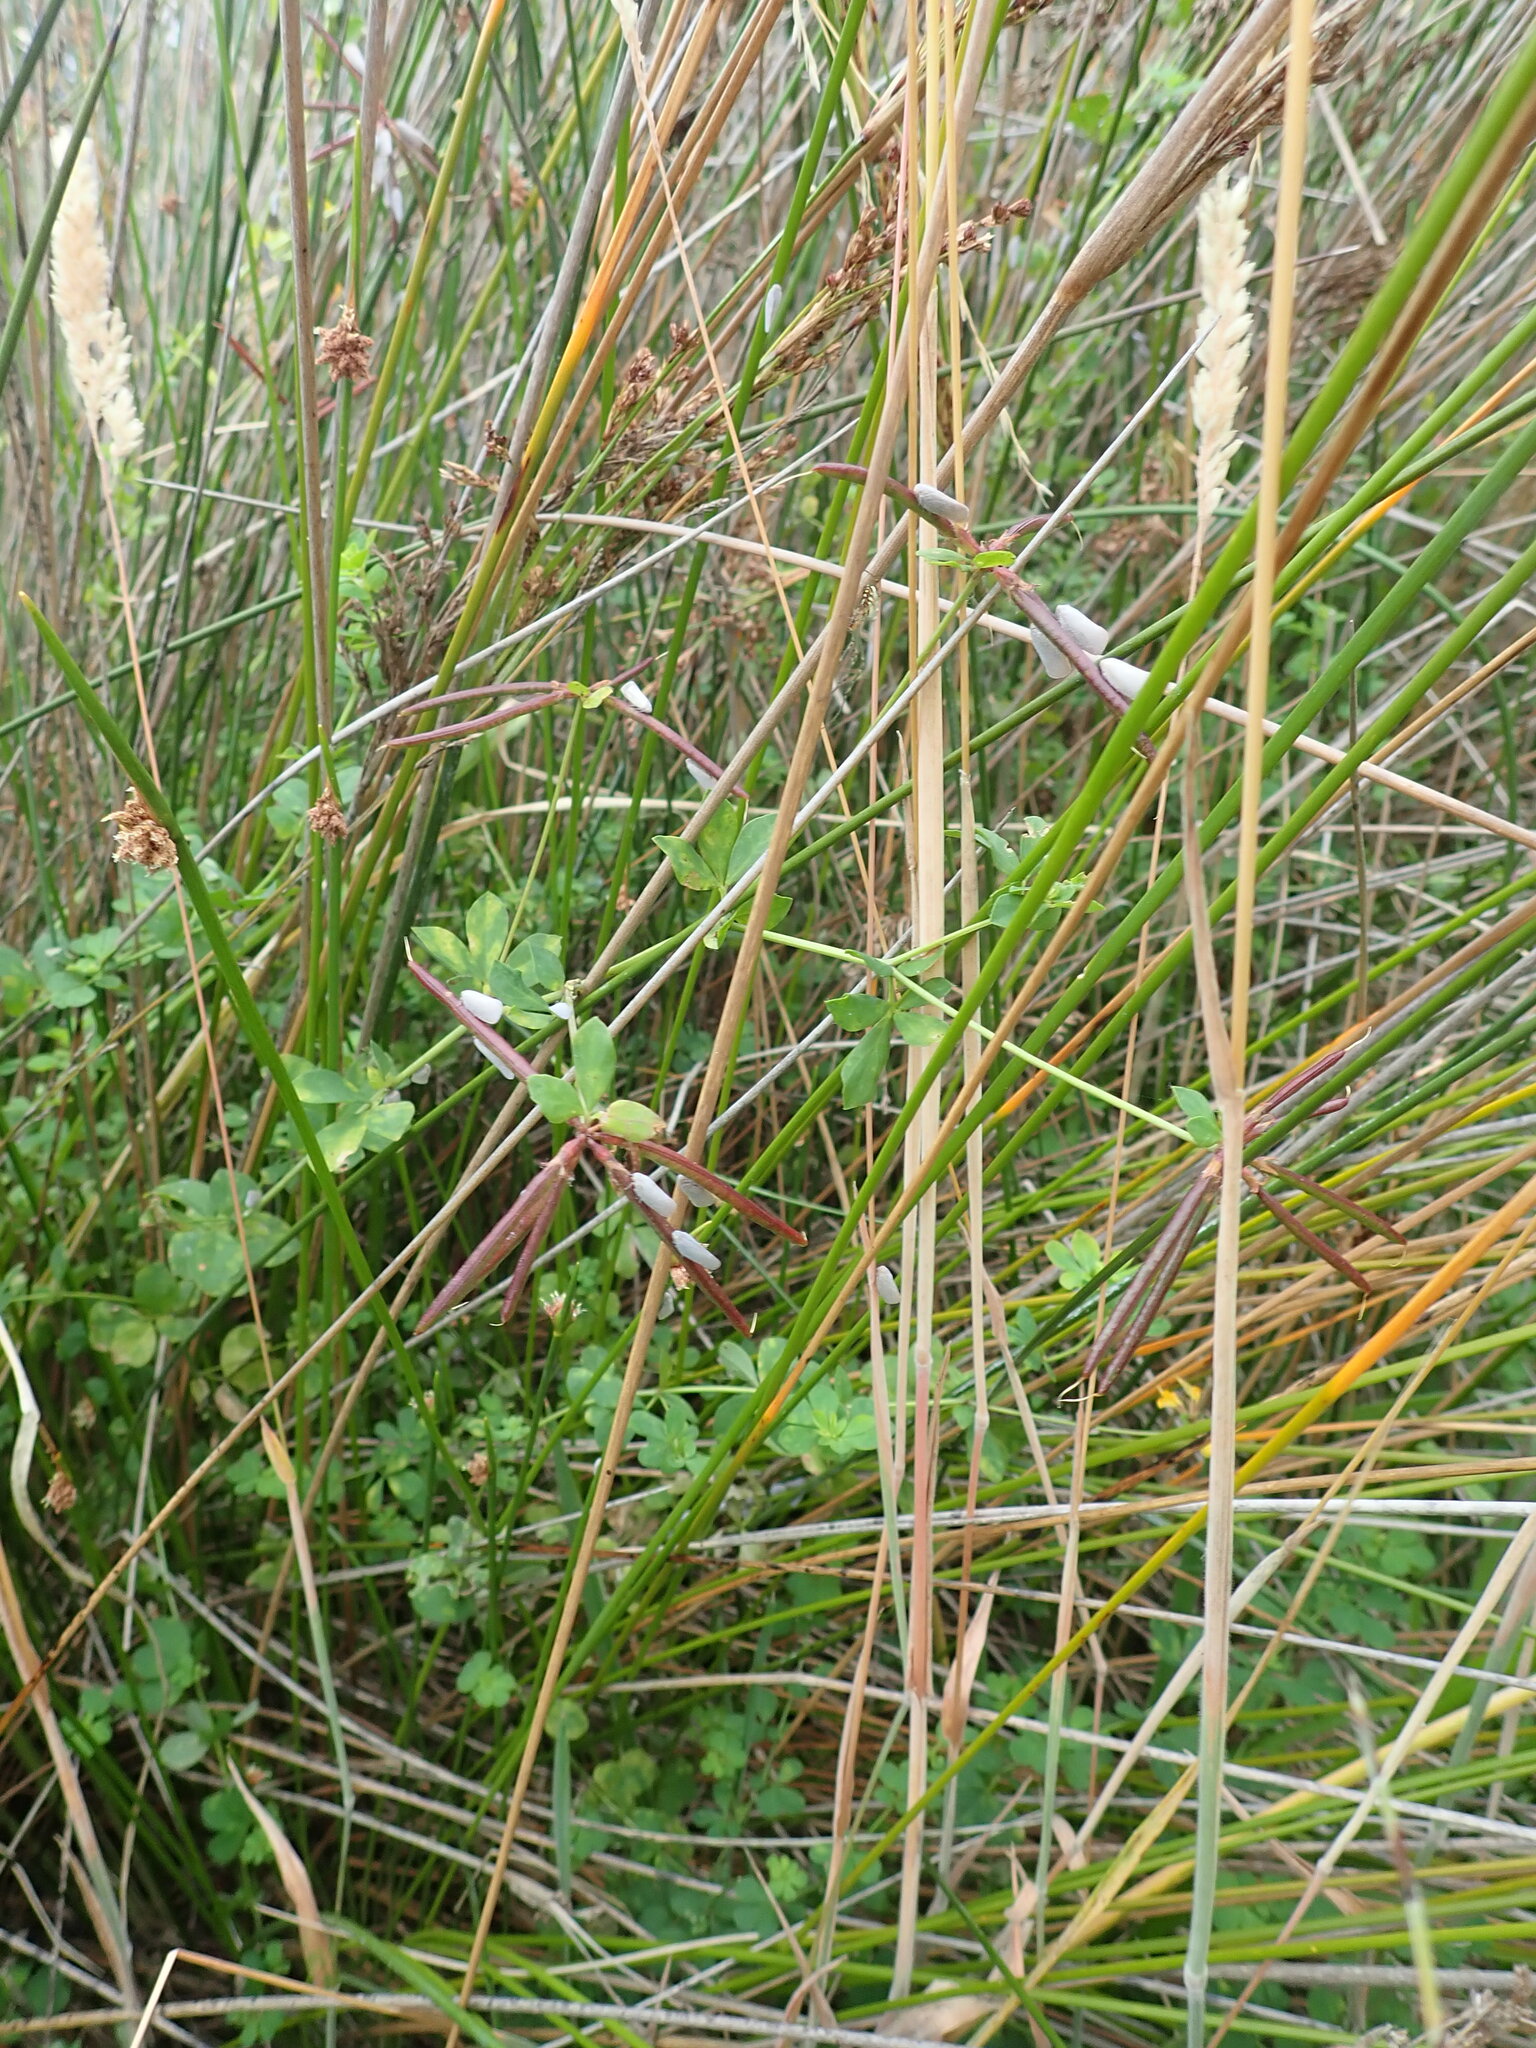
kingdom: Animalia
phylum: Arthropoda
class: Insecta
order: Hemiptera
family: Flatidae
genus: Anzora
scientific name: Anzora unicolor
